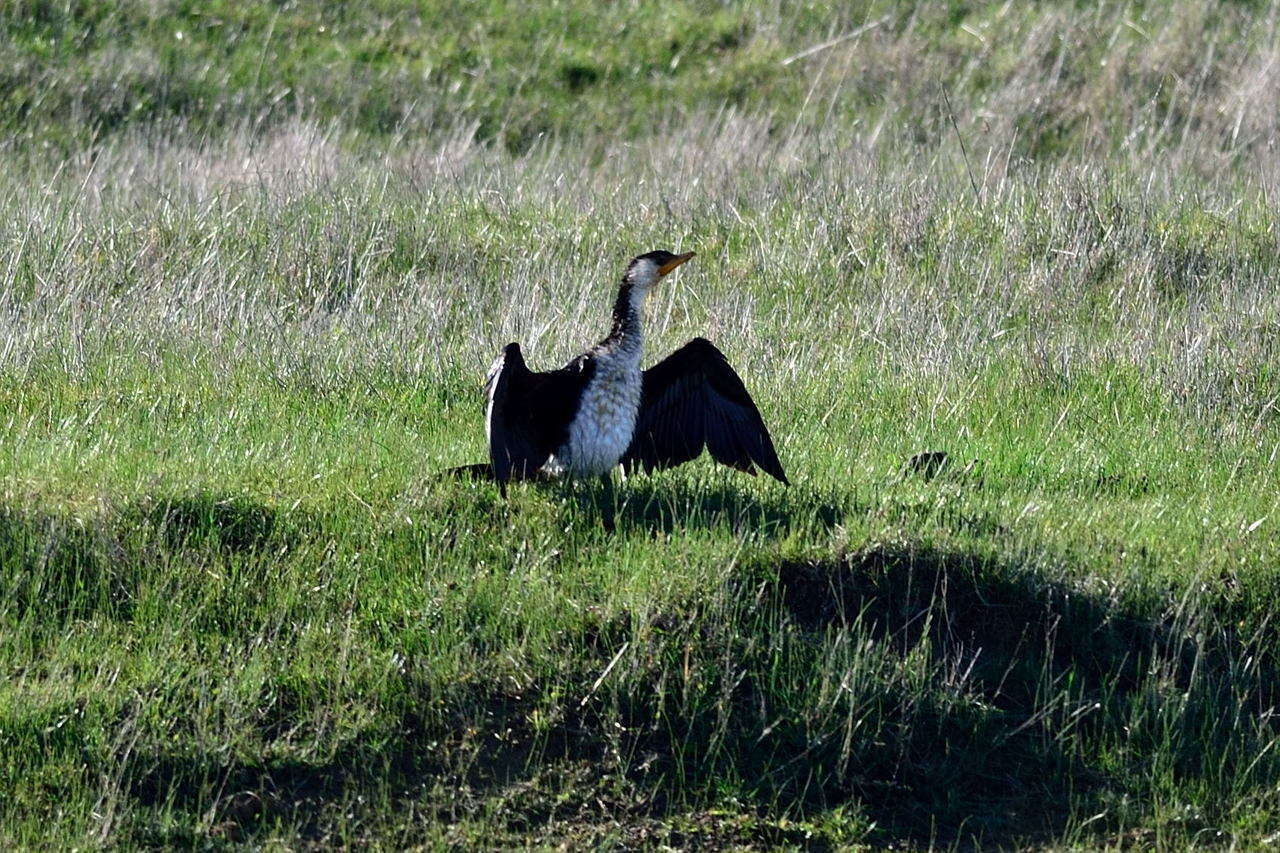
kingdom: Animalia
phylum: Chordata
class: Aves
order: Suliformes
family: Phalacrocoracidae
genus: Microcarbo
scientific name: Microcarbo melanoleucos
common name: Little pied cormorant
